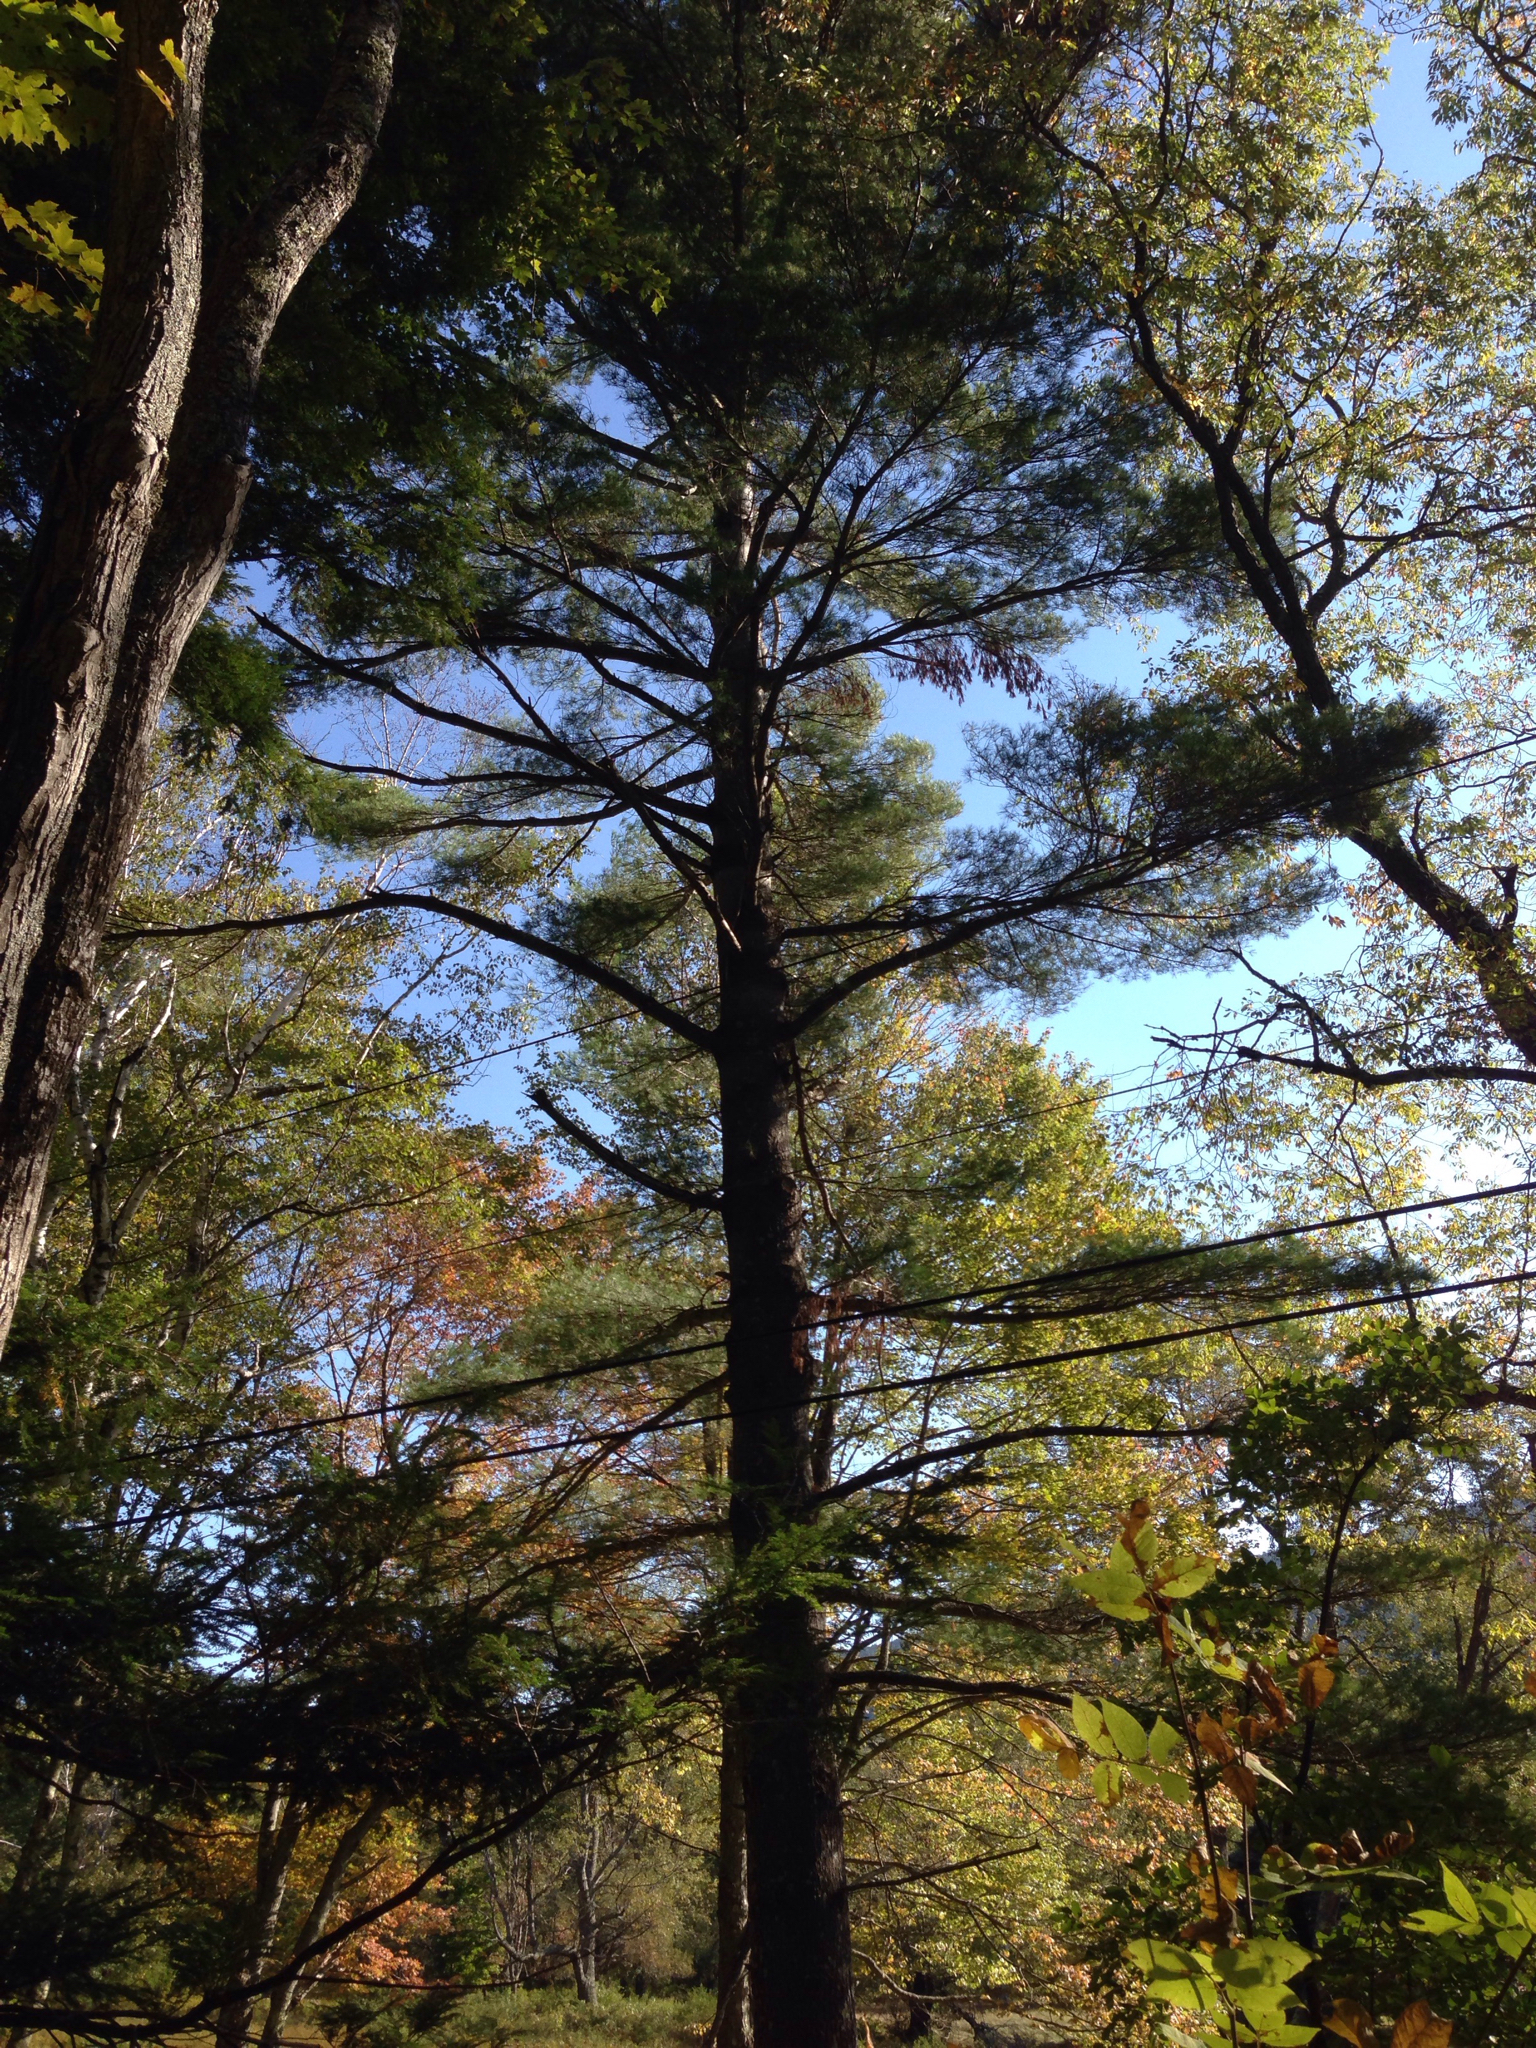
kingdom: Plantae
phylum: Tracheophyta
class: Pinopsida
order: Pinales
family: Pinaceae
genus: Pinus
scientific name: Pinus strobus
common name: Weymouth pine
